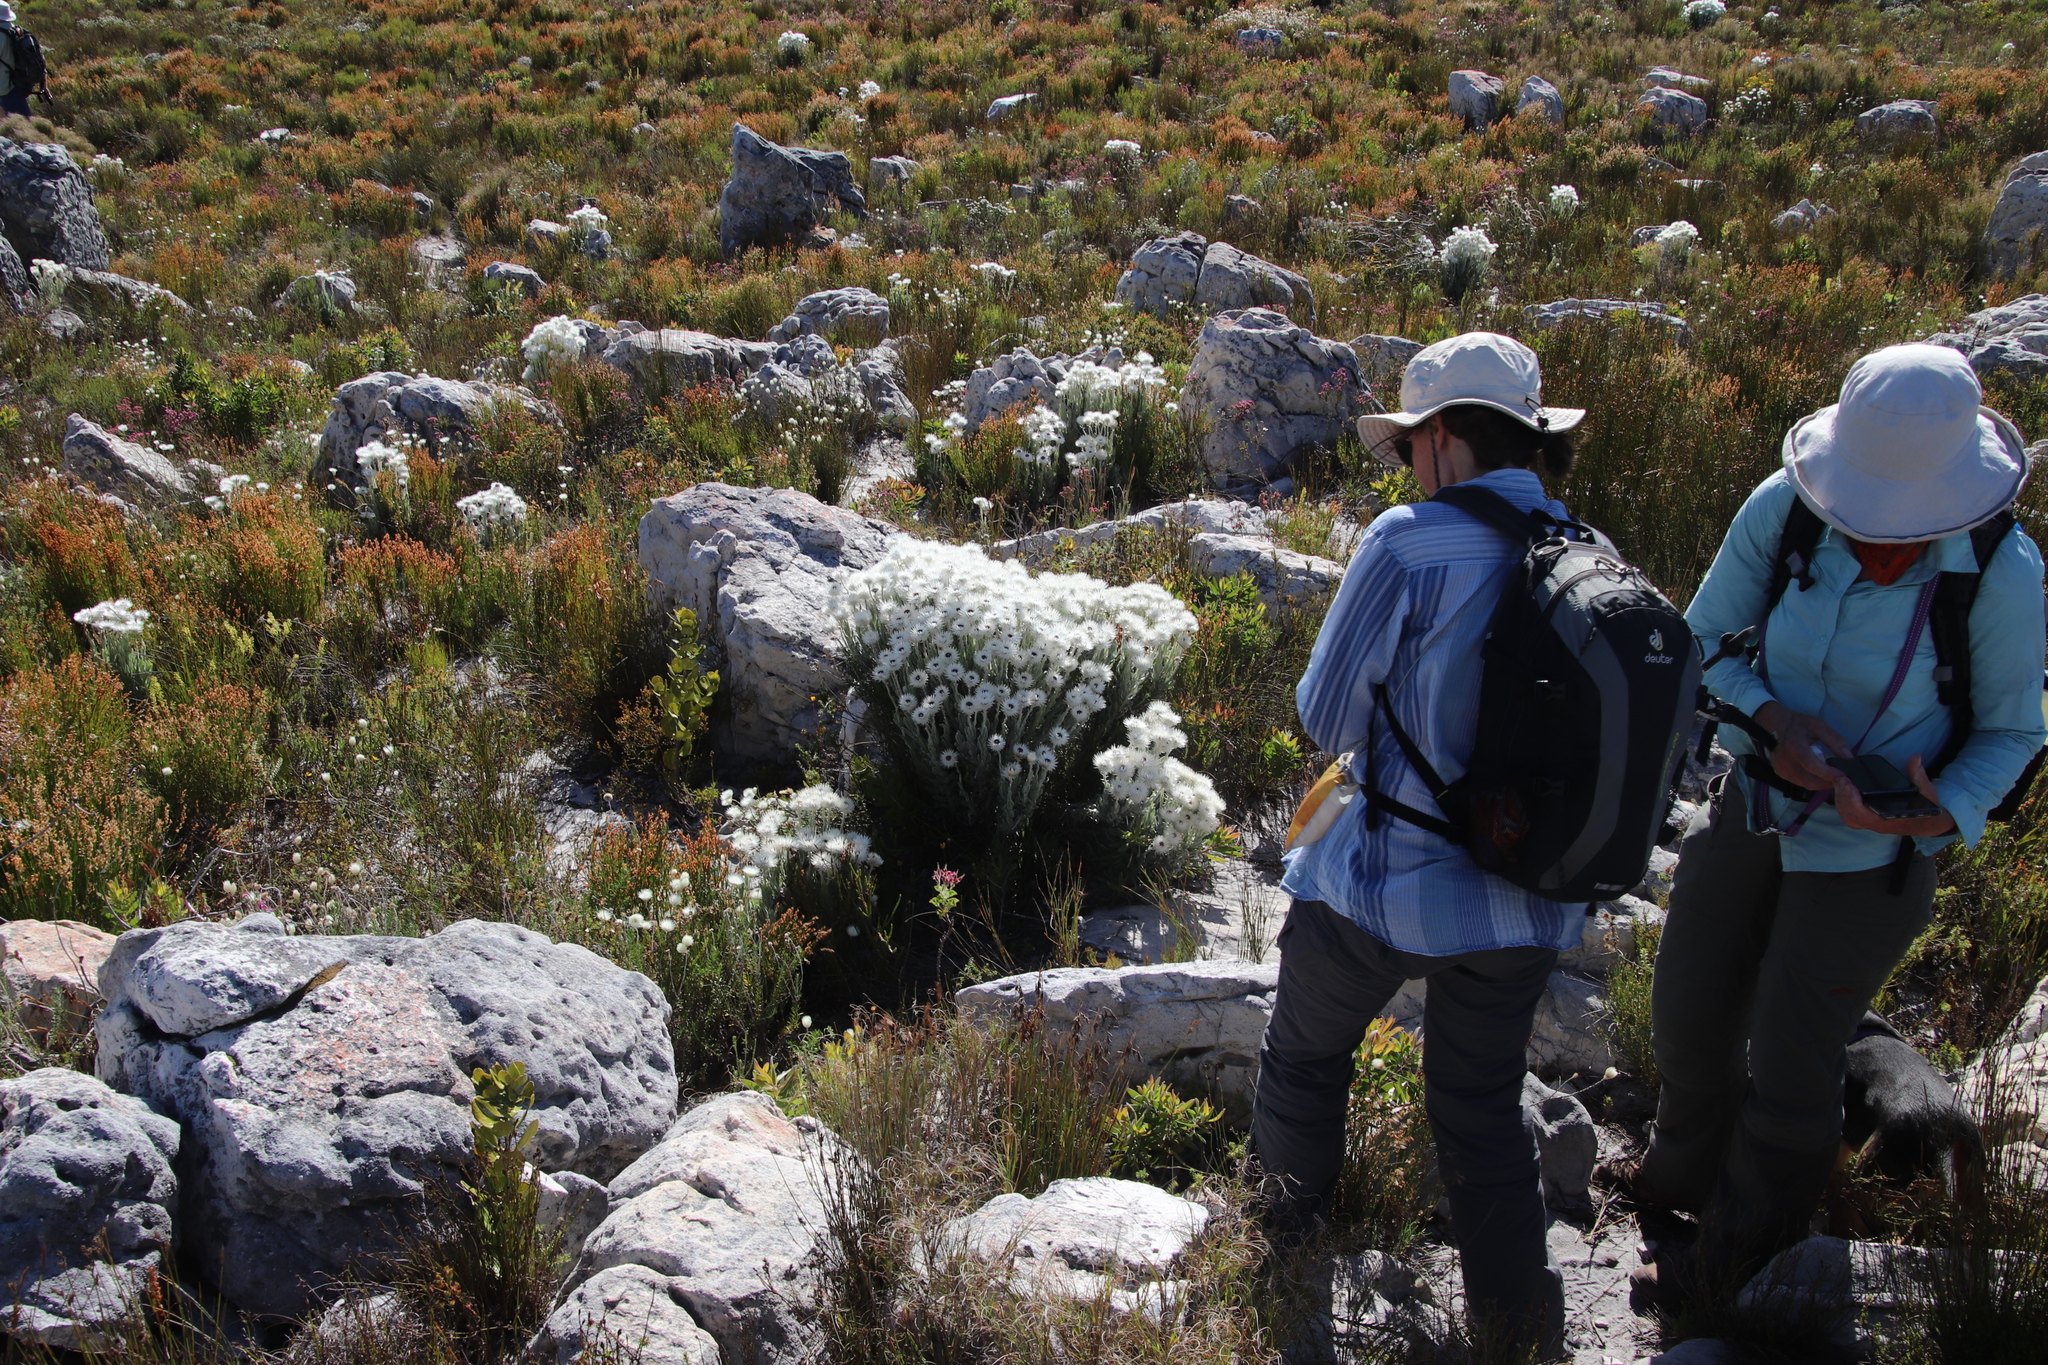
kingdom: Plantae
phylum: Tracheophyta
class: Magnoliopsida
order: Asterales
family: Asteraceae
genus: Syncarpha
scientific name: Syncarpha vestita
